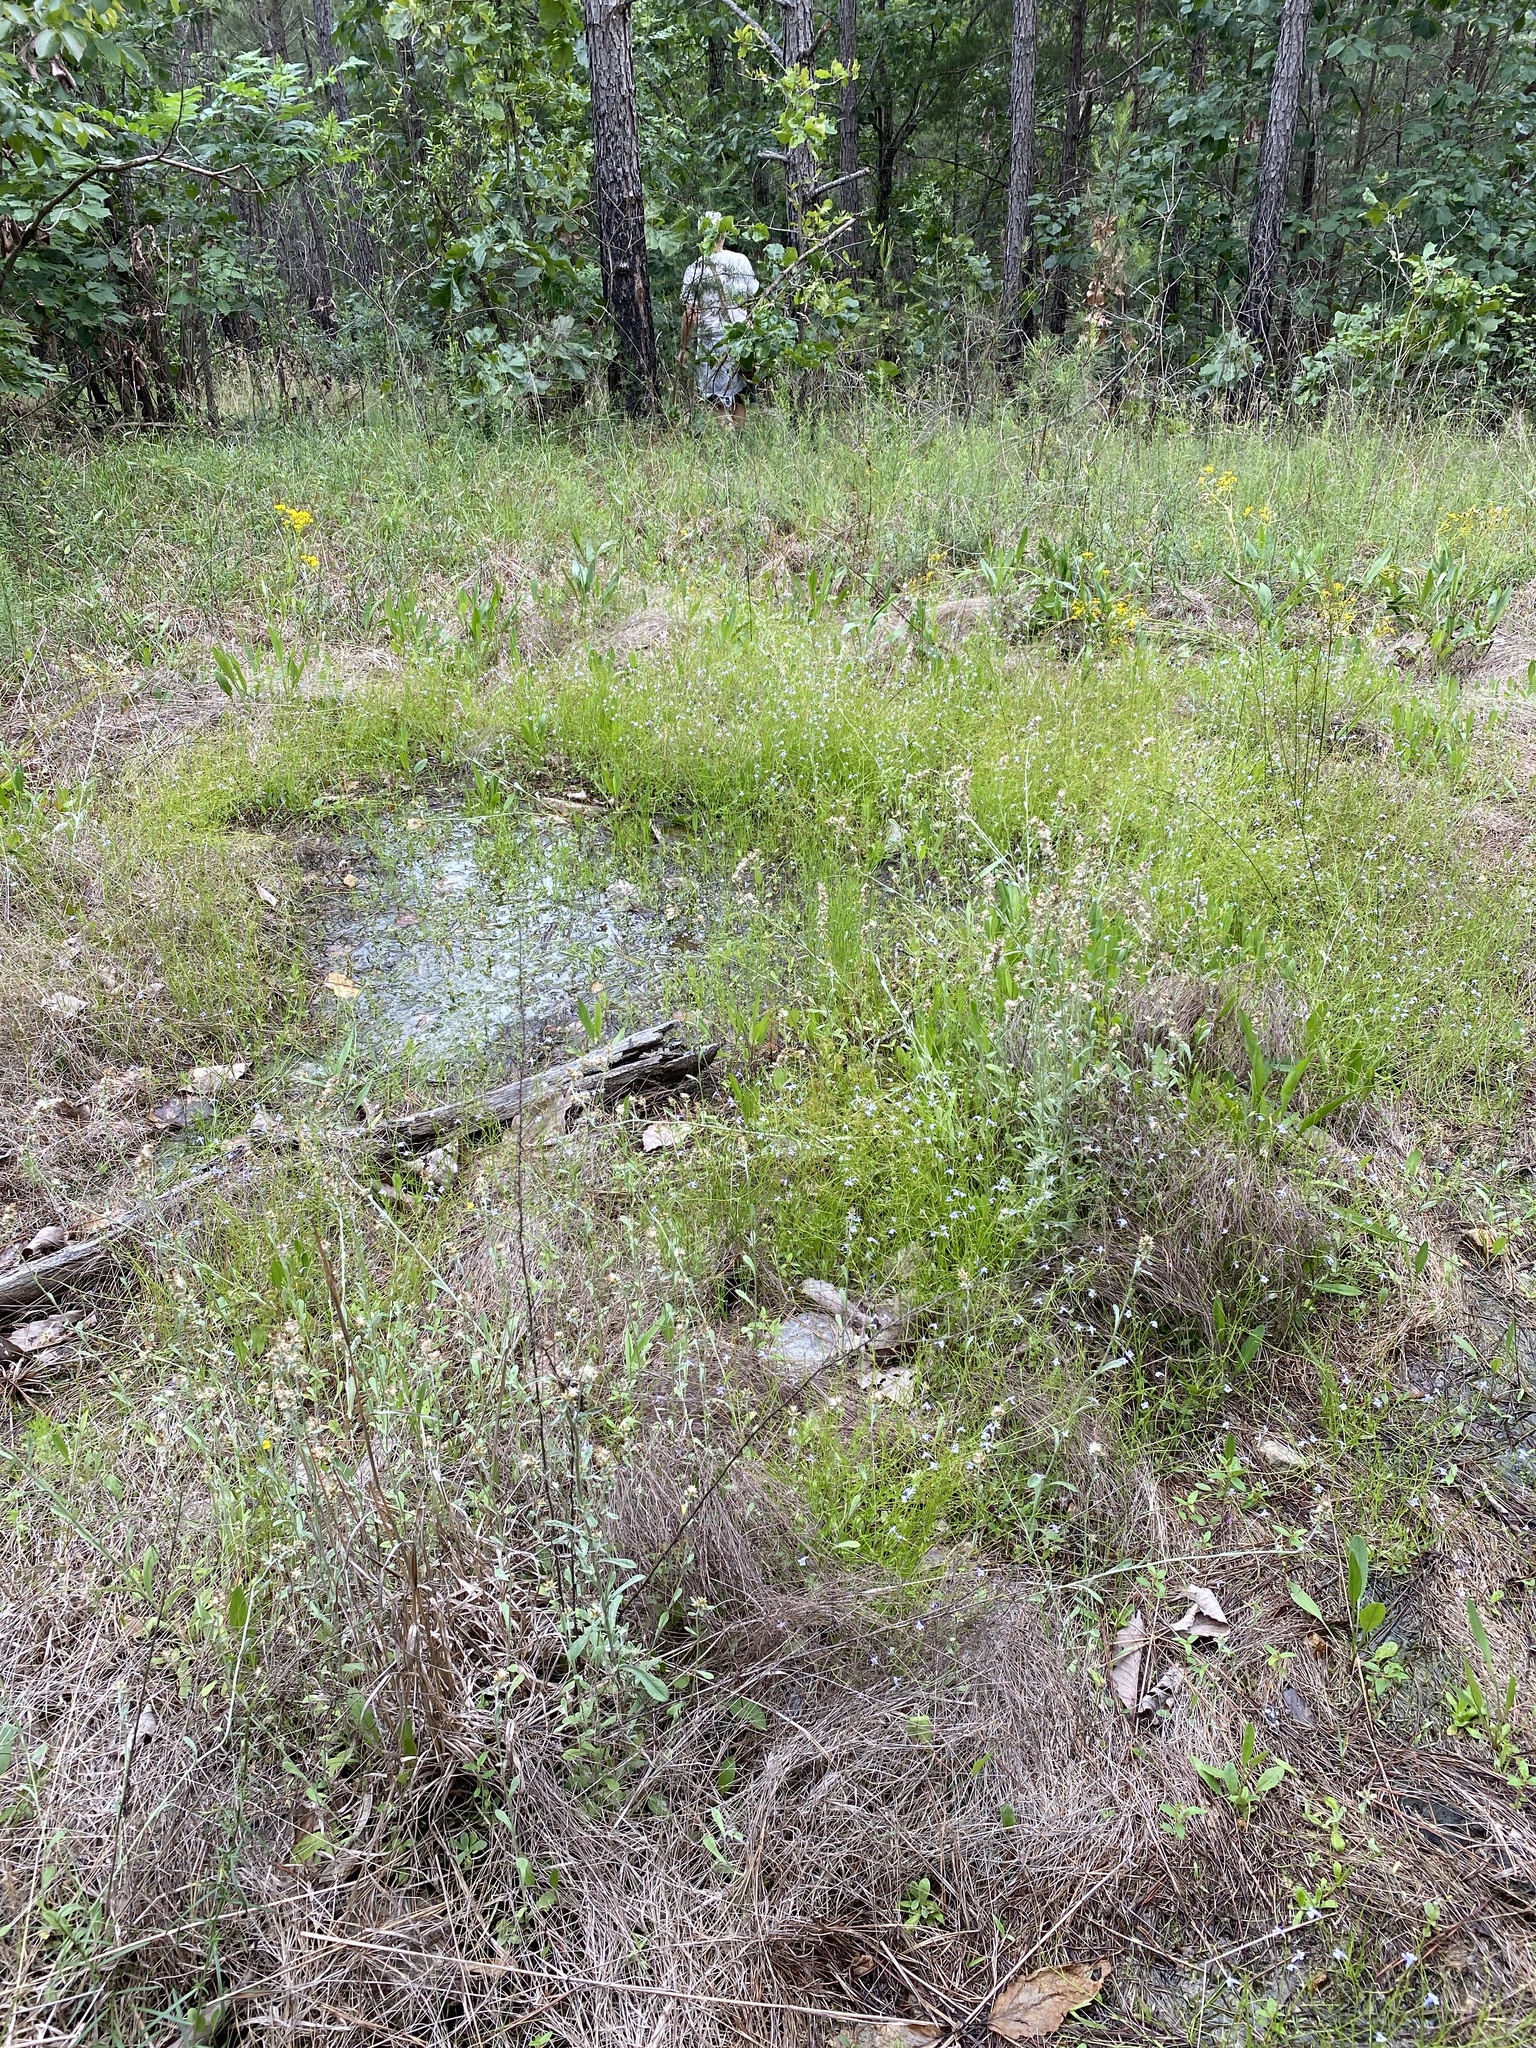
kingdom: Plantae
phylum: Tracheophyta
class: Magnoliopsida
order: Lamiales
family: Linderniaceae
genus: Lindernia
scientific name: Lindernia monticola
